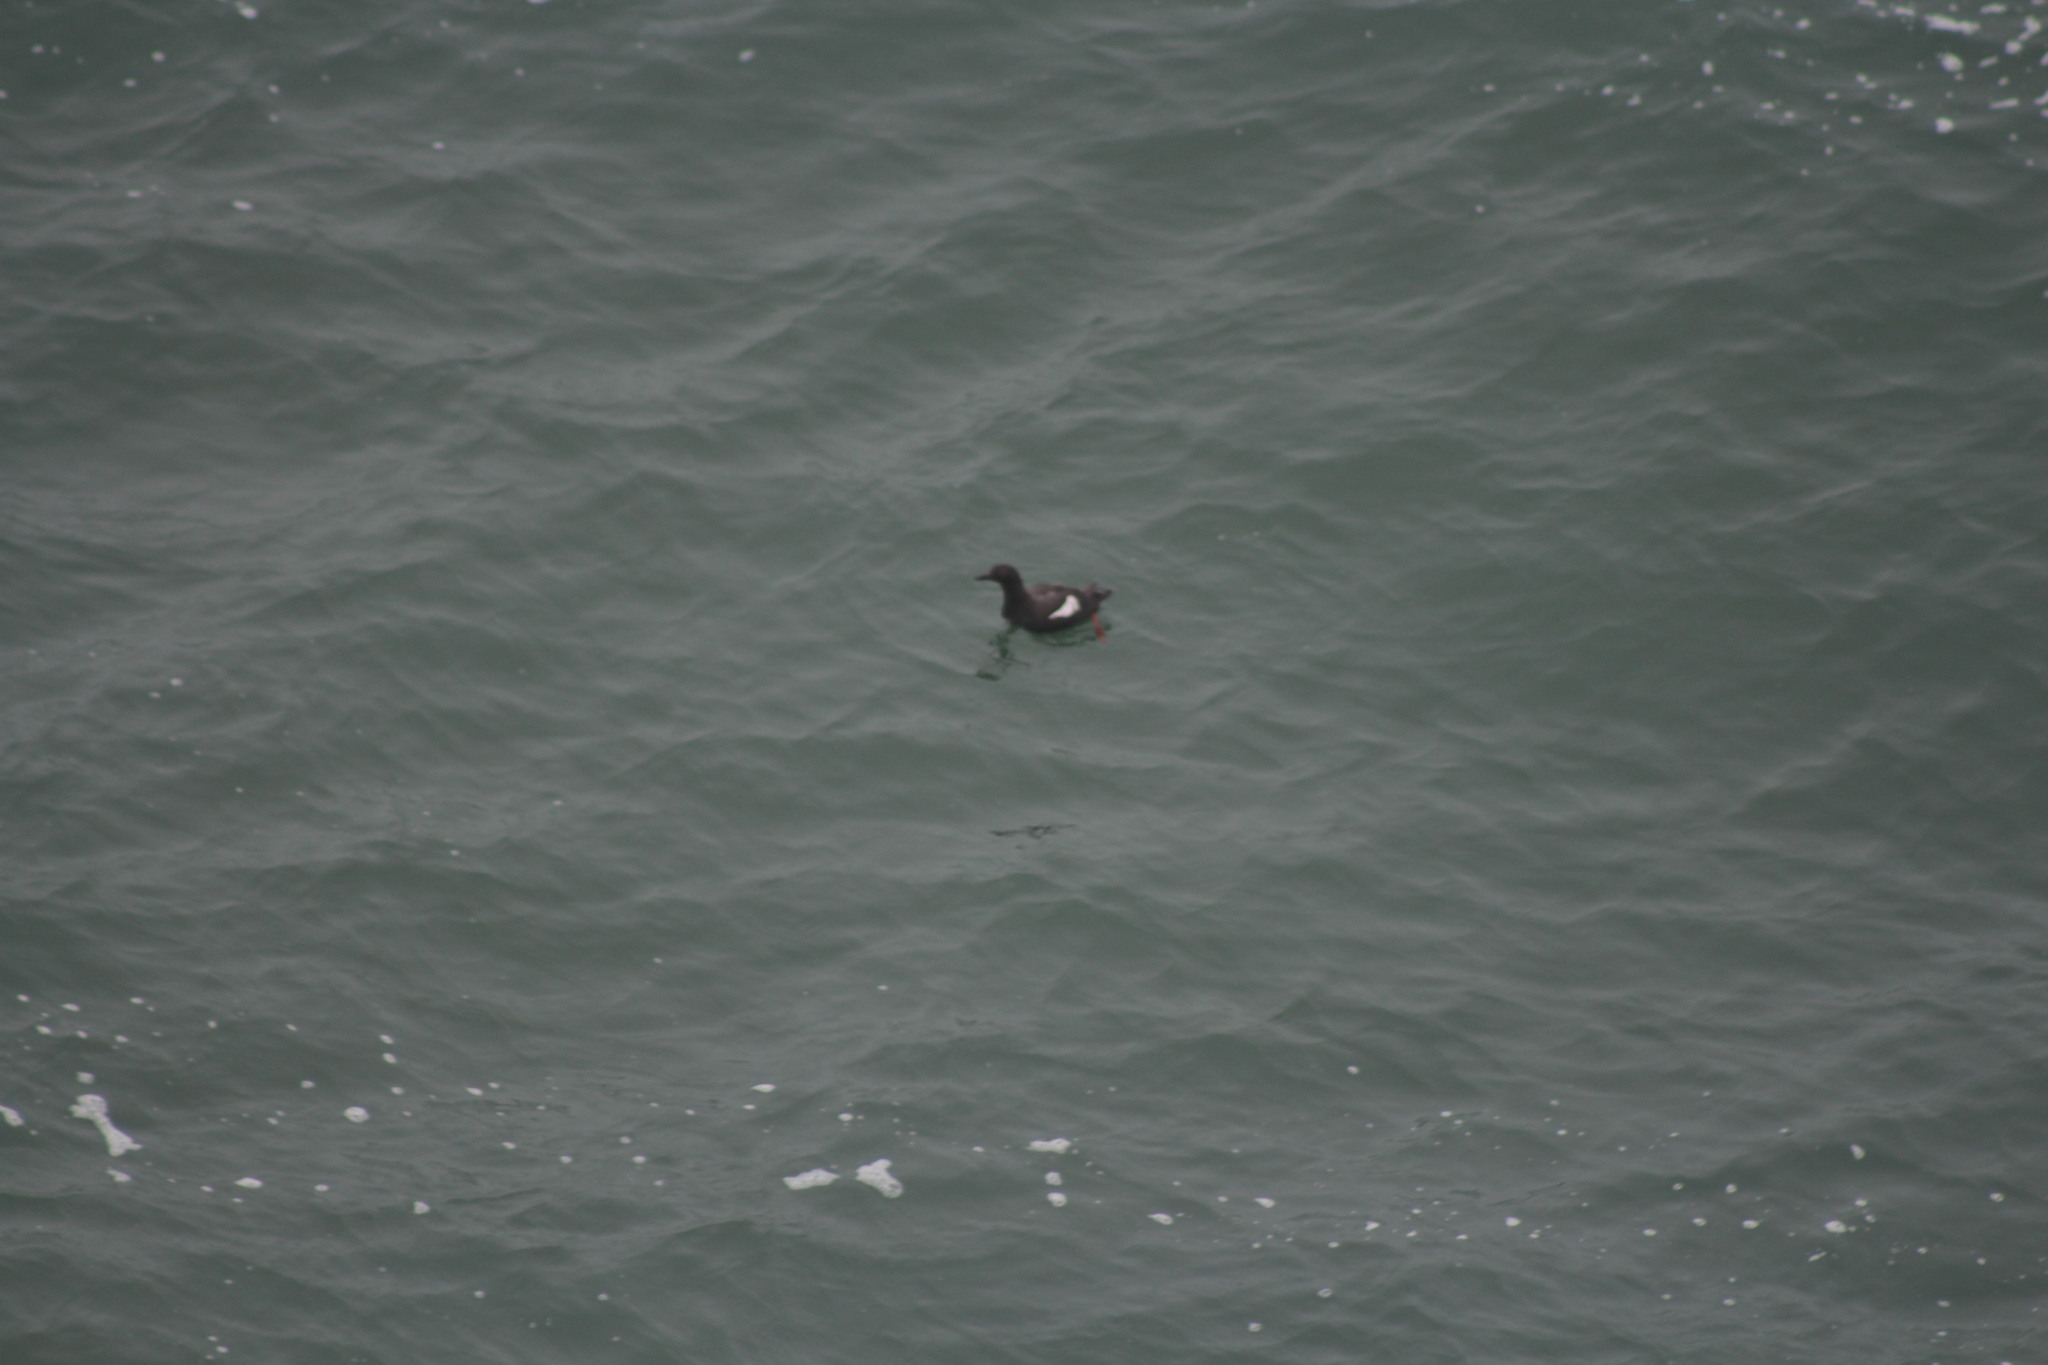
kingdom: Animalia
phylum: Chordata
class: Aves
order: Charadriiformes
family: Alcidae
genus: Cepphus
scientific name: Cepphus columba
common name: Pigeon guillemot
